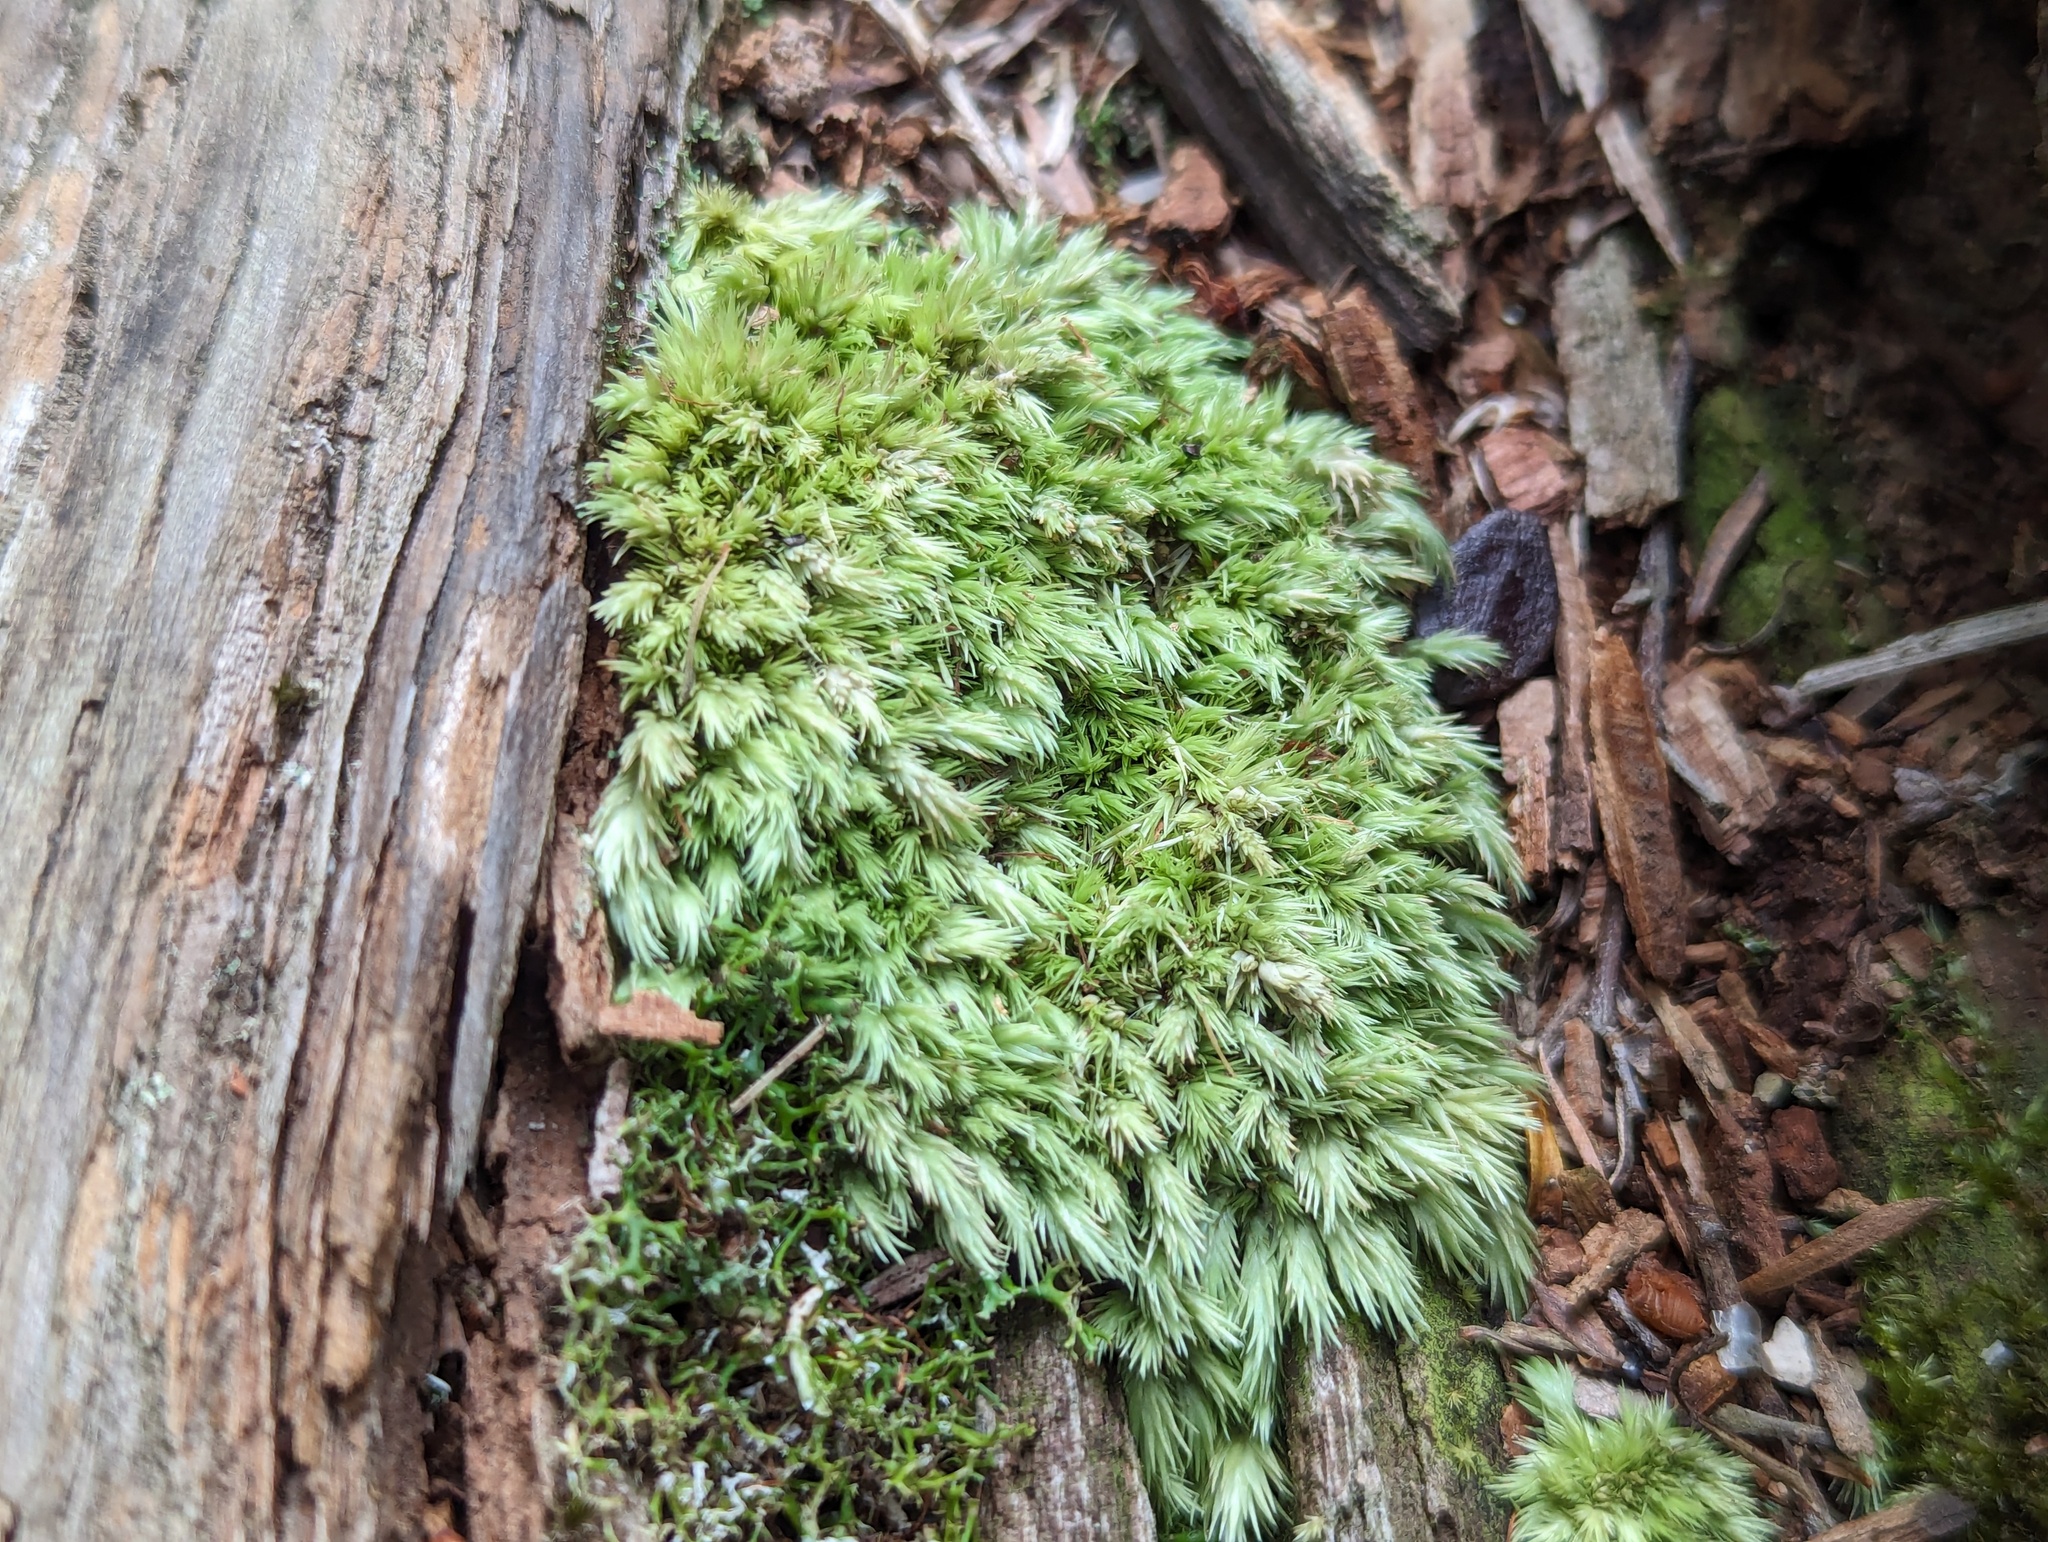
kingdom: Plantae
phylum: Bryophyta
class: Bryopsida
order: Dicranales
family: Leucobryaceae
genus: Leucobryum
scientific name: Leucobryum javense
